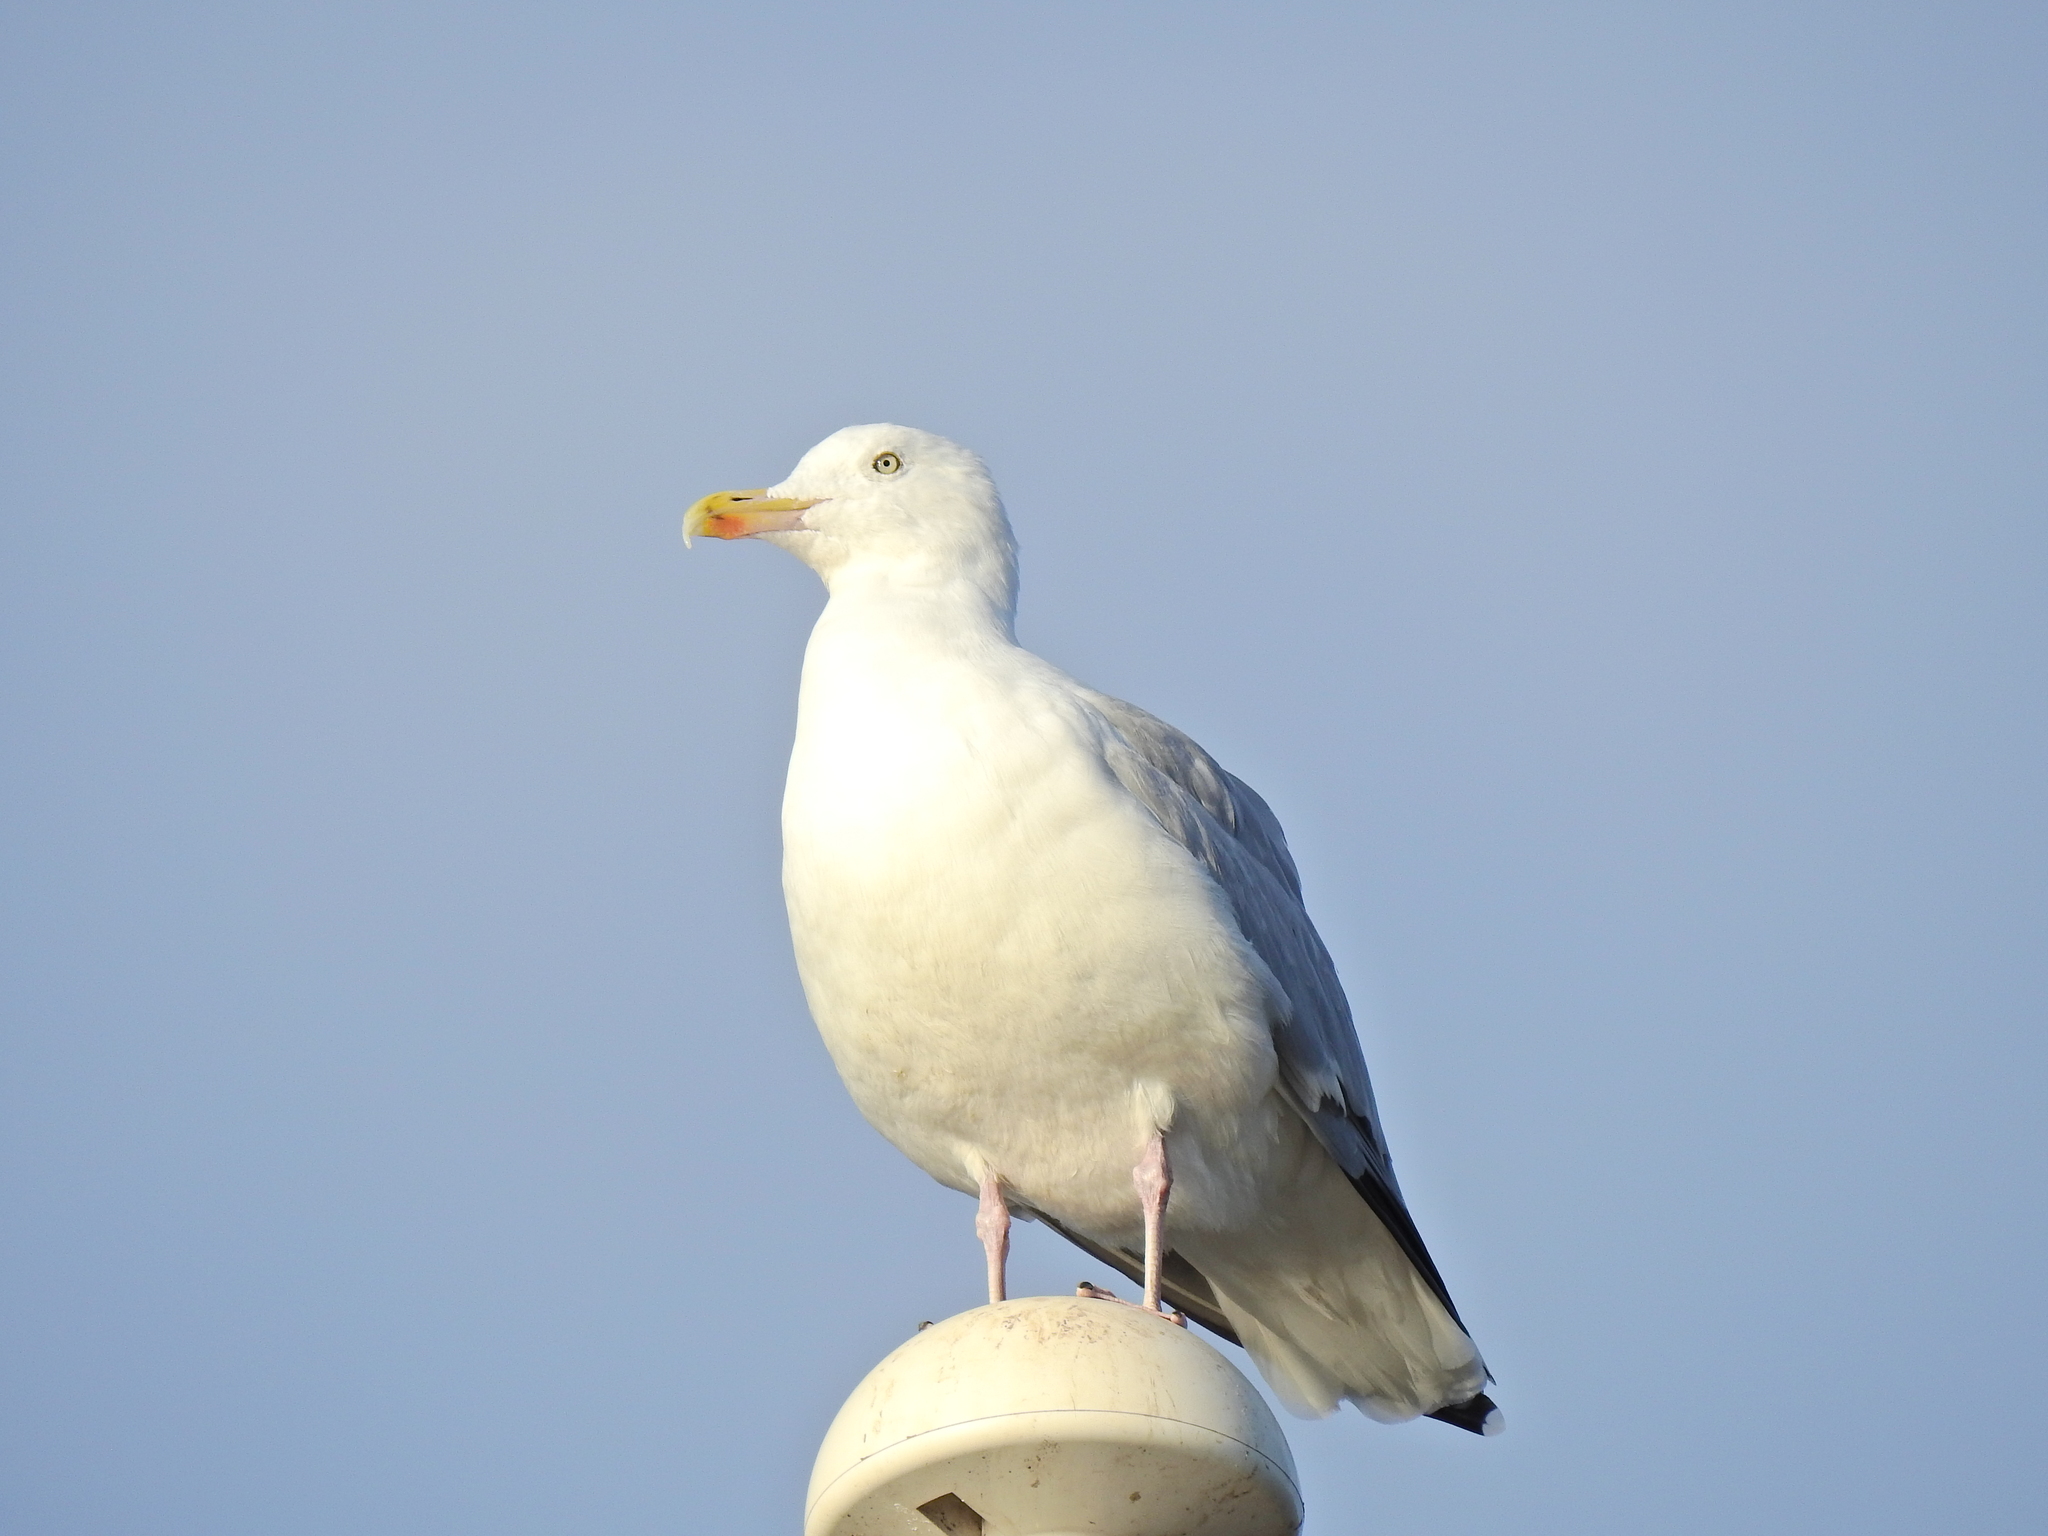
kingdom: Animalia
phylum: Chordata
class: Aves
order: Charadriiformes
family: Laridae
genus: Larus
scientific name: Larus argentatus
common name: Herring gull
